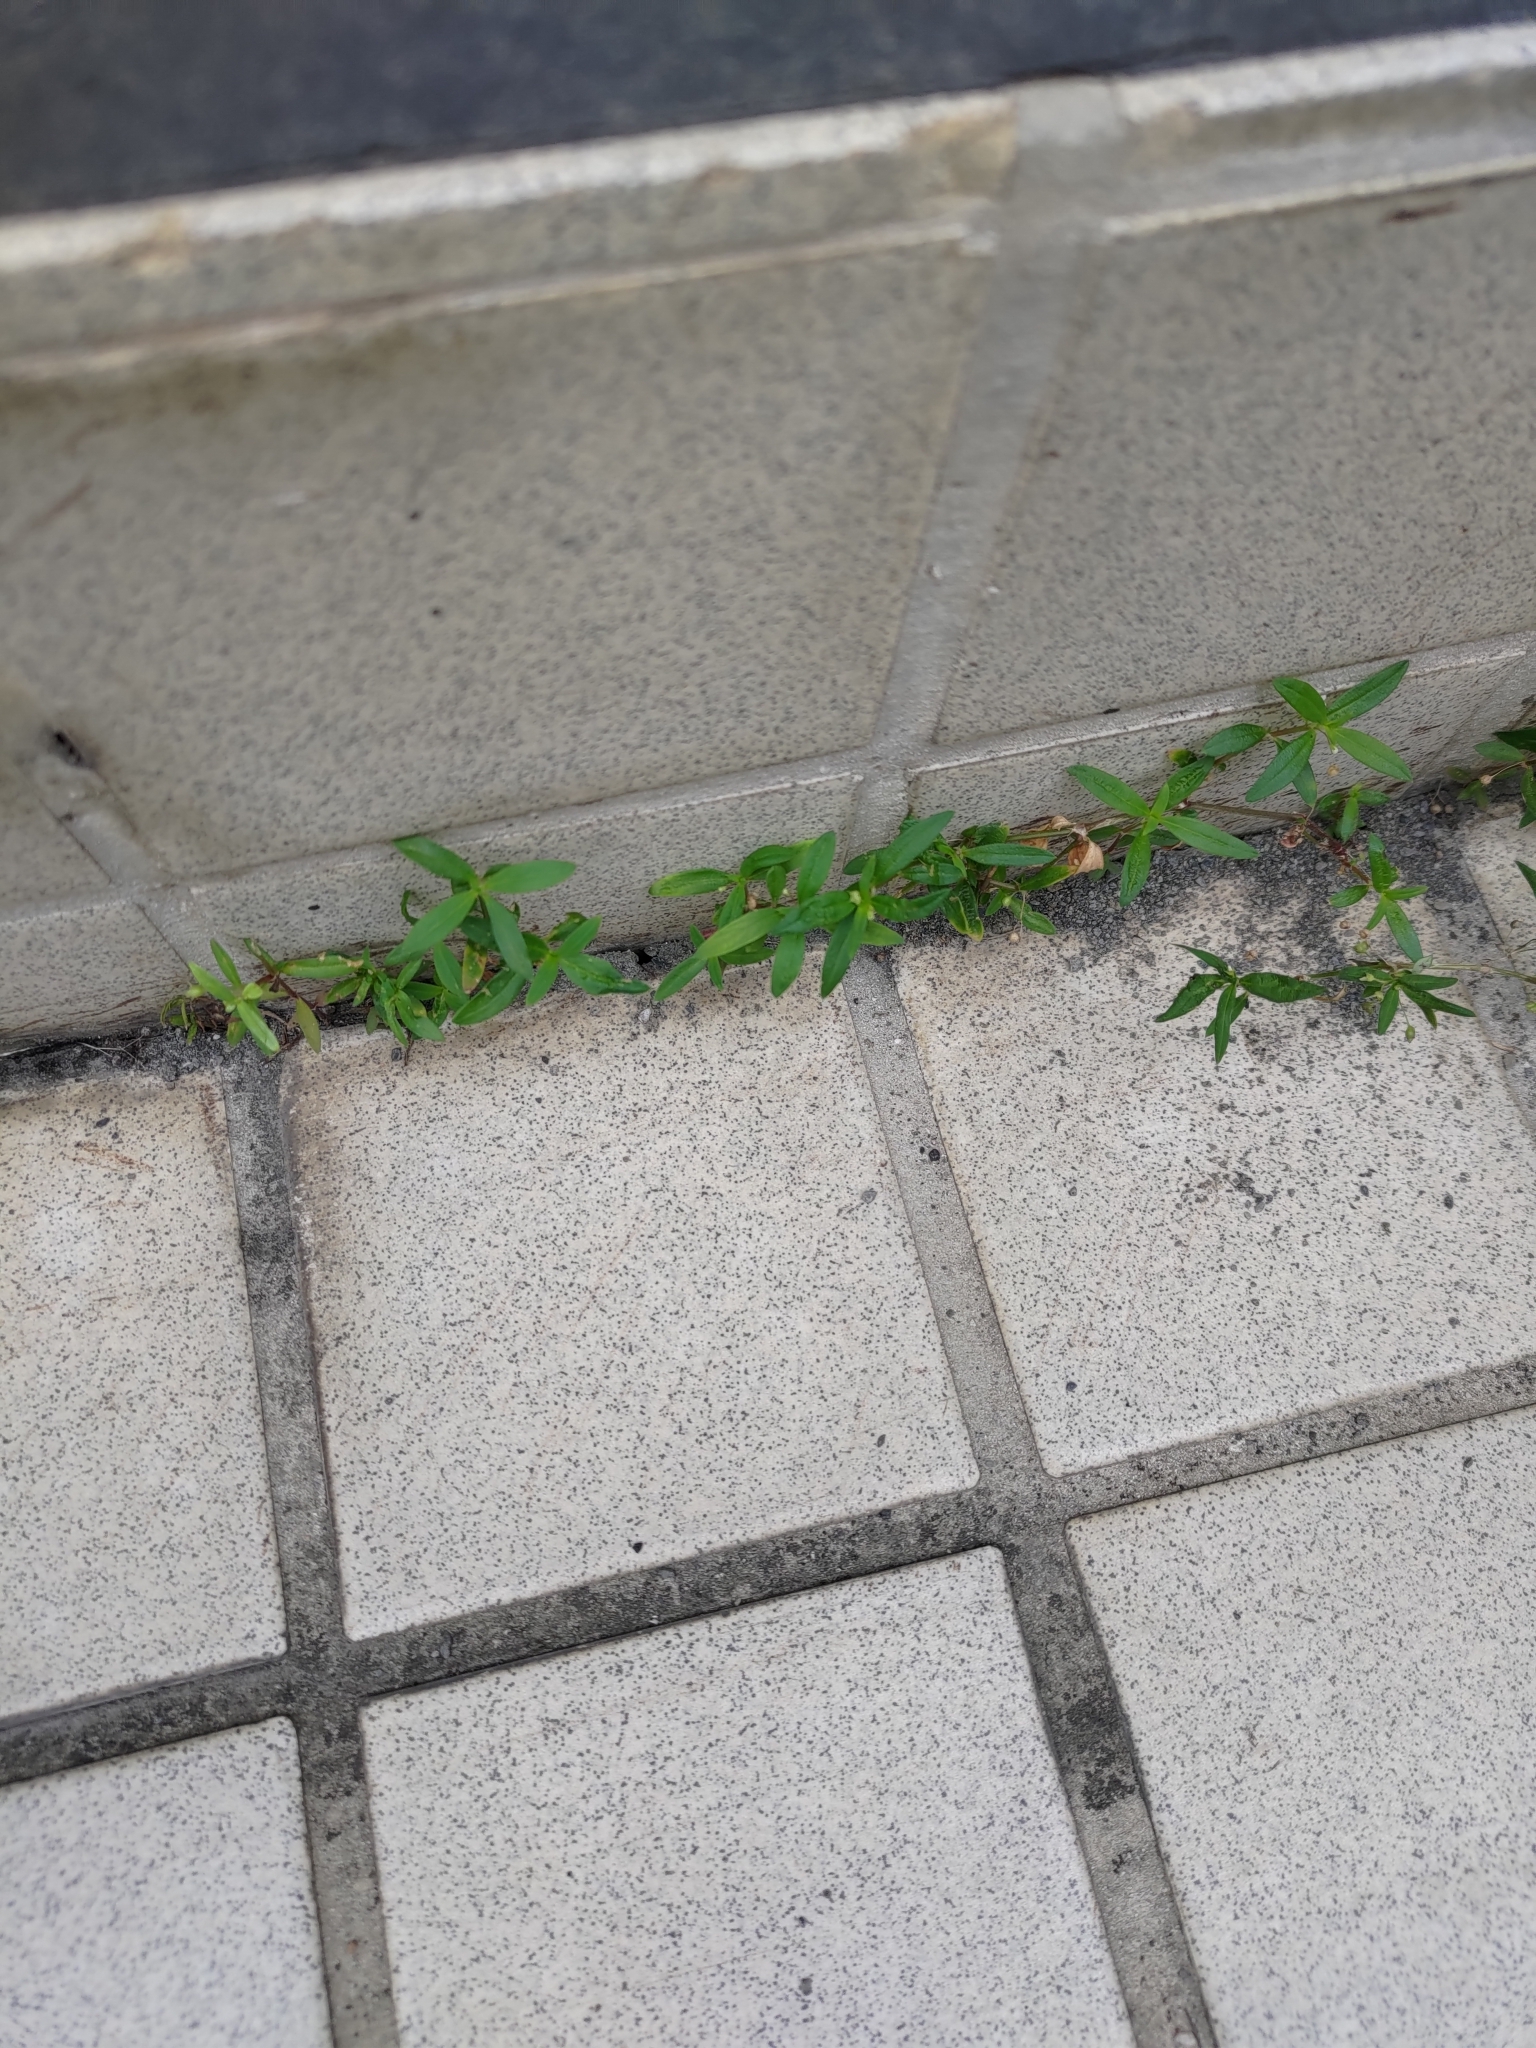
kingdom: Plantae
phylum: Tracheophyta
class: Magnoliopsida
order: Gentianales
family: Rubiaceae
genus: Oldenlandia
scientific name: Oldenlandia corymbosa
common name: Flat-top mille graines
